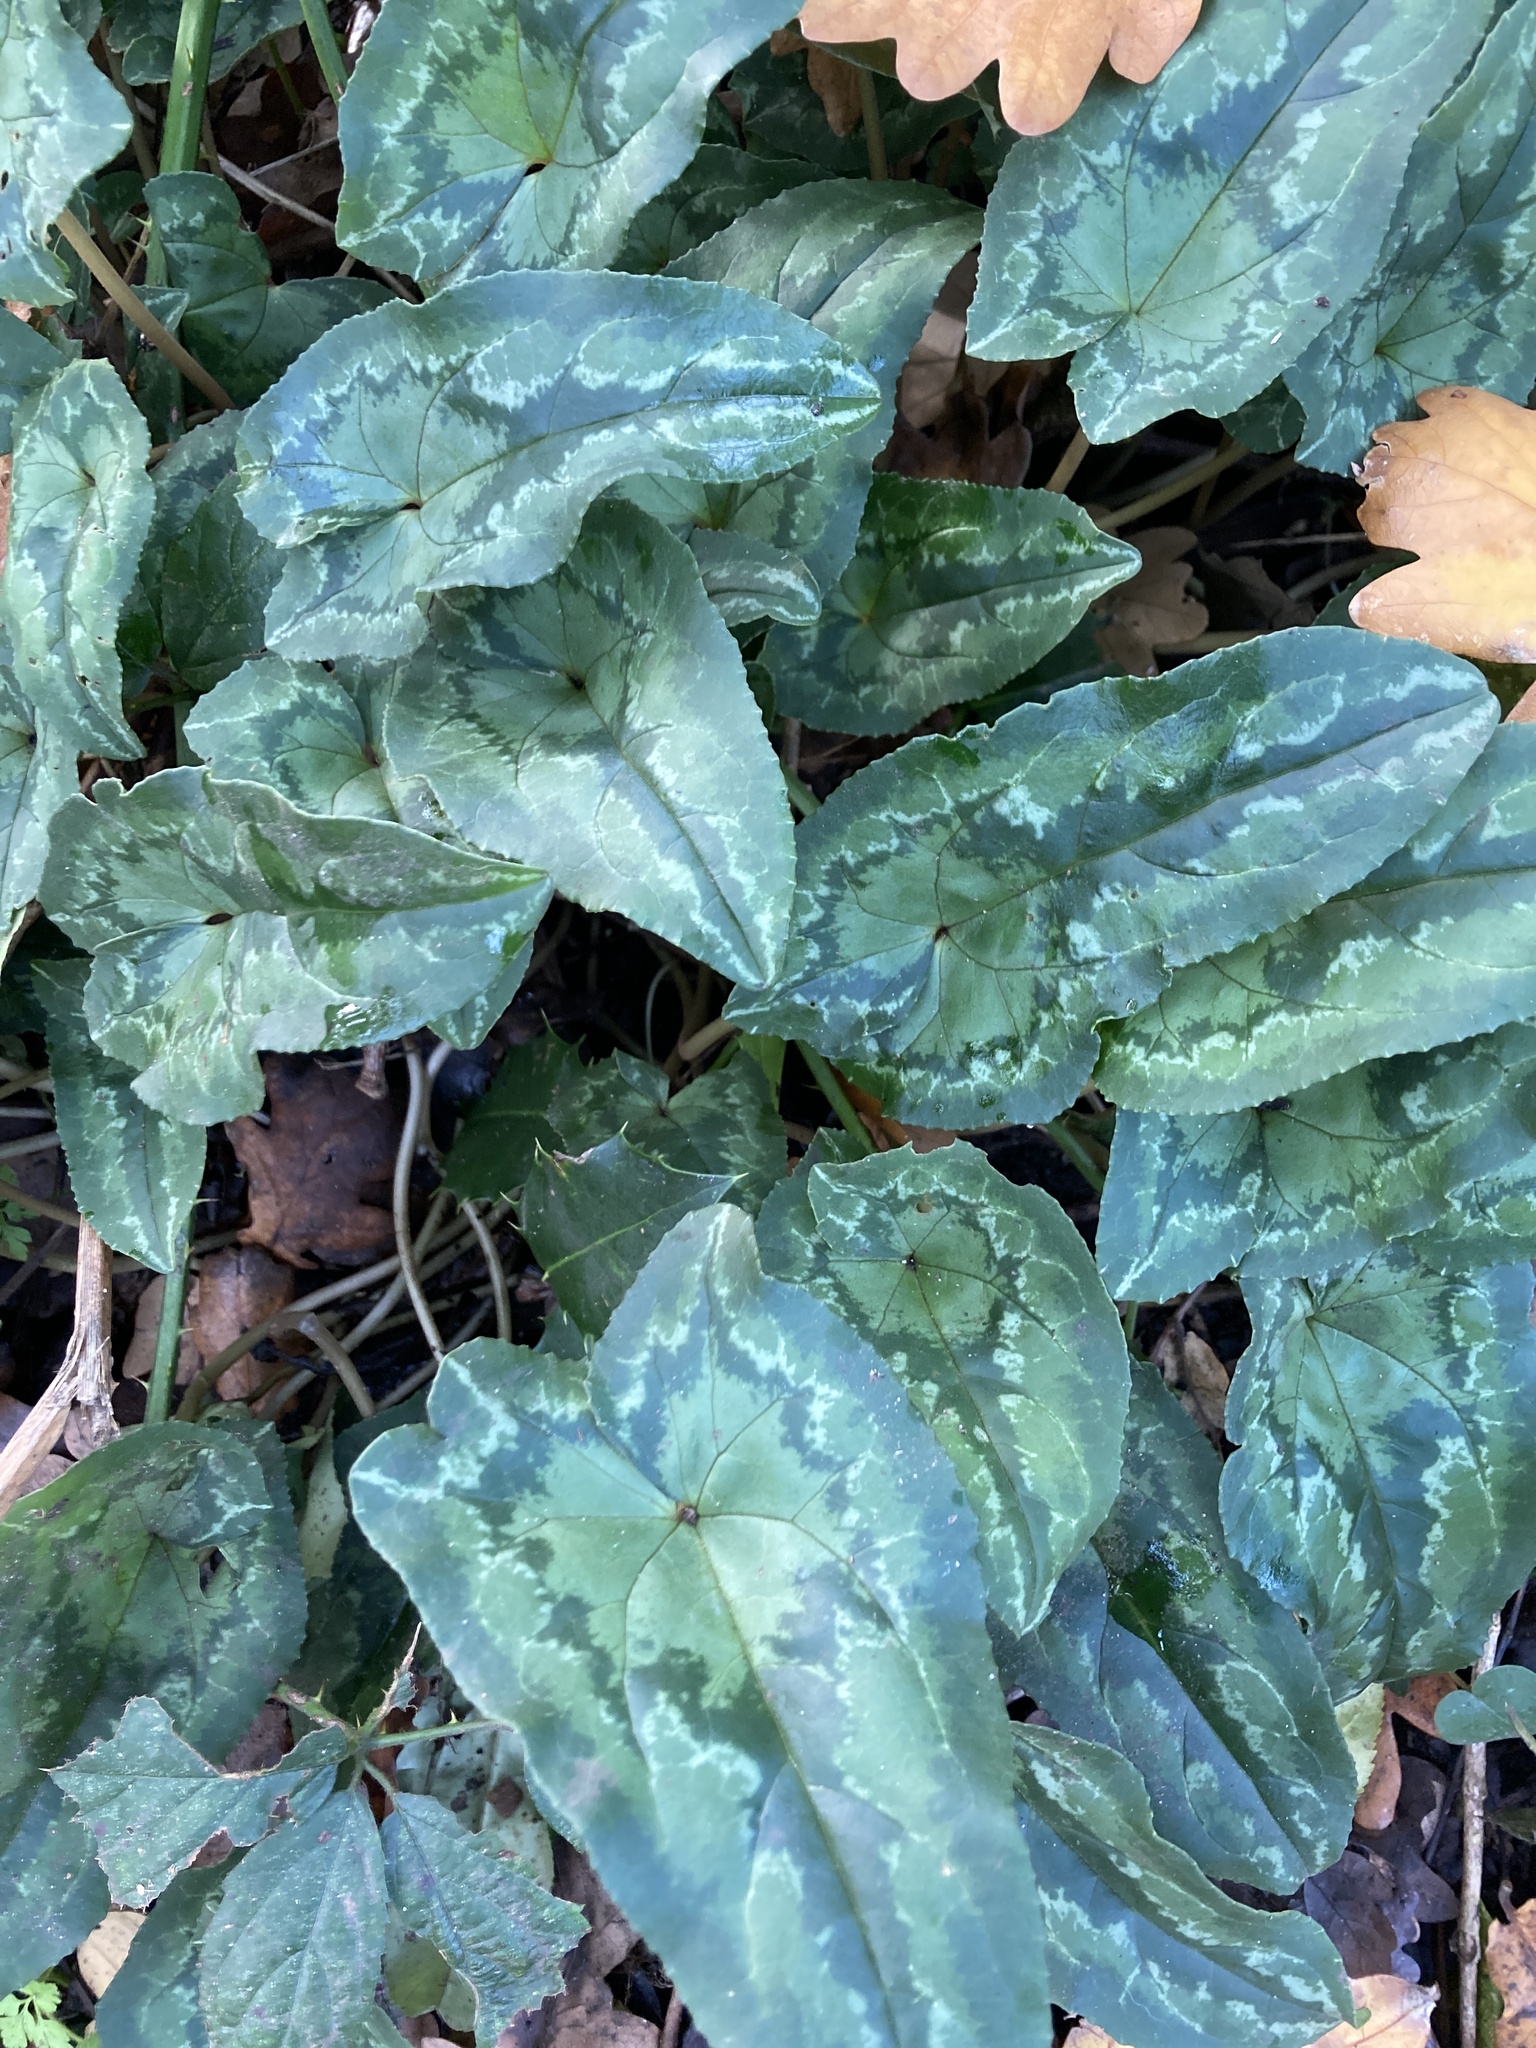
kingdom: Plantae
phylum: Tracheophyta
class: Magnoliopsida
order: Ericales
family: Primulaceae
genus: Cyclamen
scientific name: Cyclamen hederifolium
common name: Sowbread
